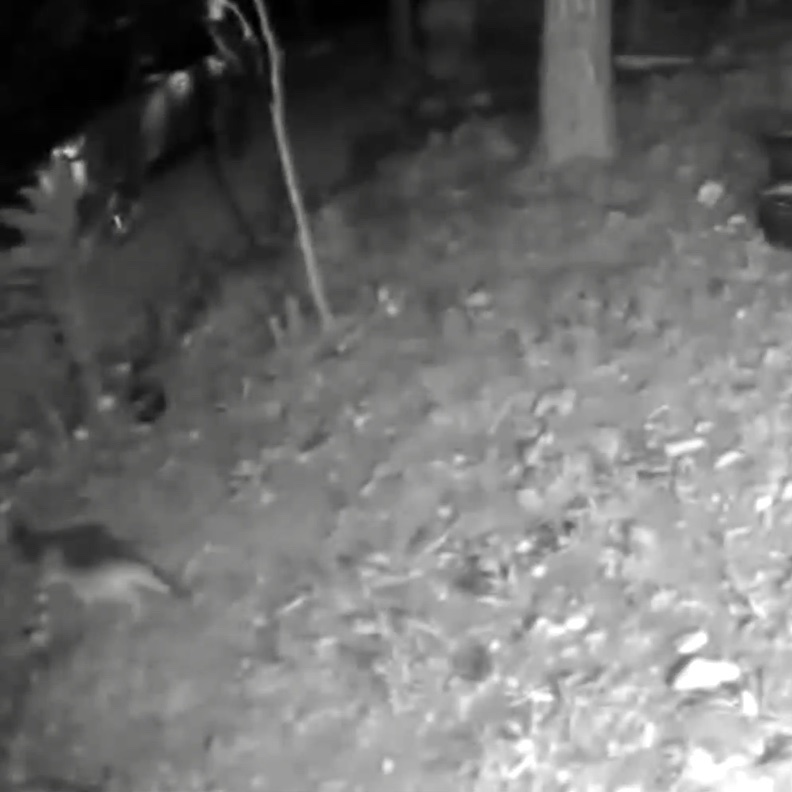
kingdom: Animalia
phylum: Chordata
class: Mammalia
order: Carnivora
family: Canidae
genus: Urocyon
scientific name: Urocyon cinereoargenteus
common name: Gray fox
